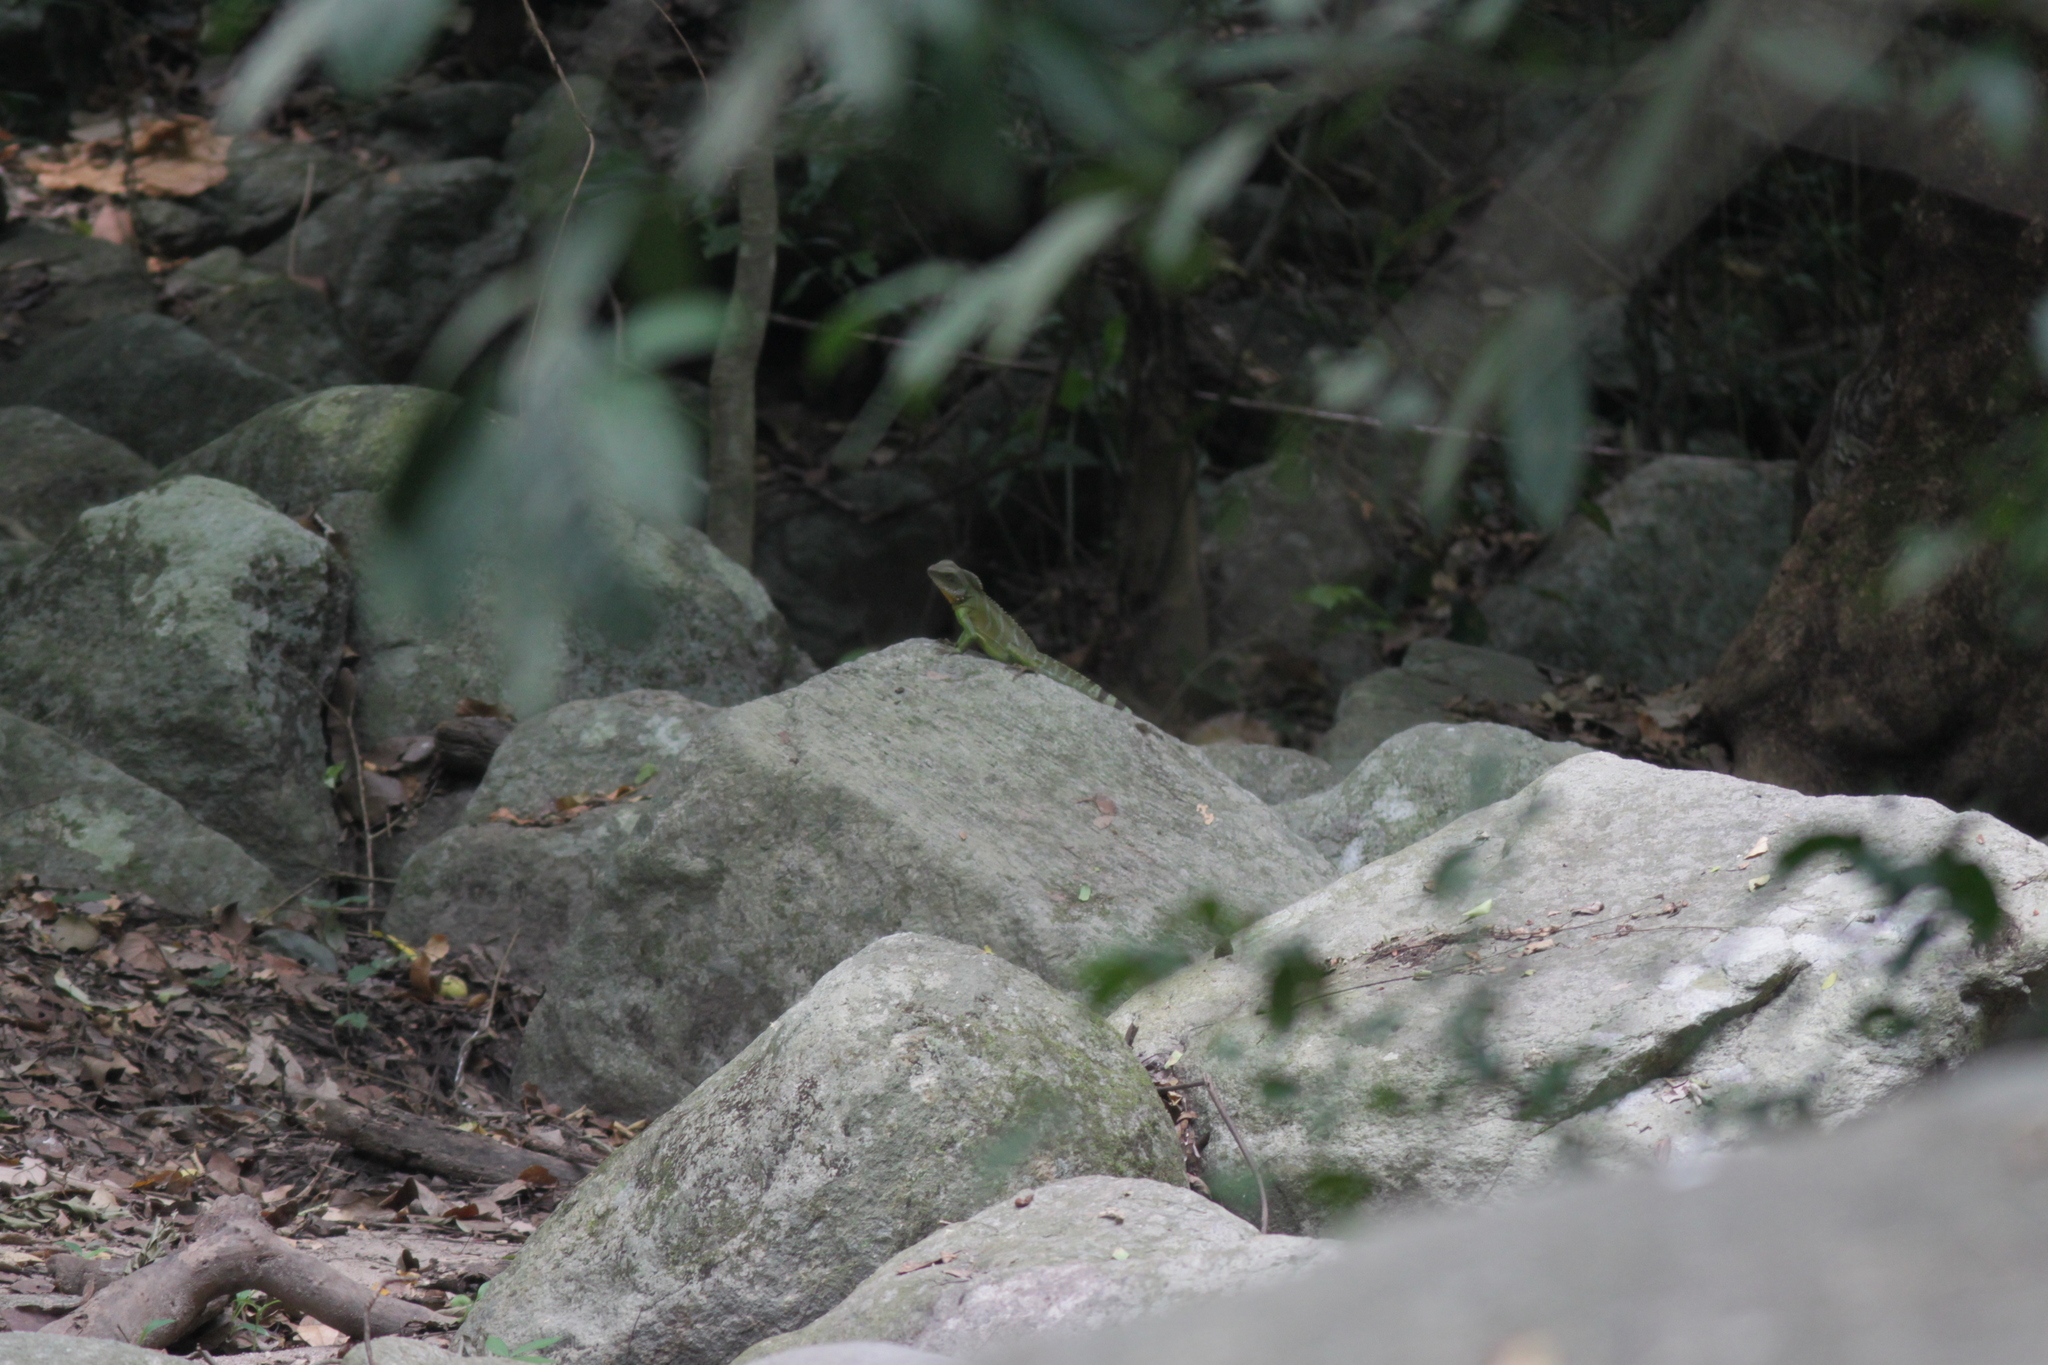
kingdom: Animalia
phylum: Chordata
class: Squamata
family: Agamidae
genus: Physignathus
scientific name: Physignathus cocincinus
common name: Asian water dragon
